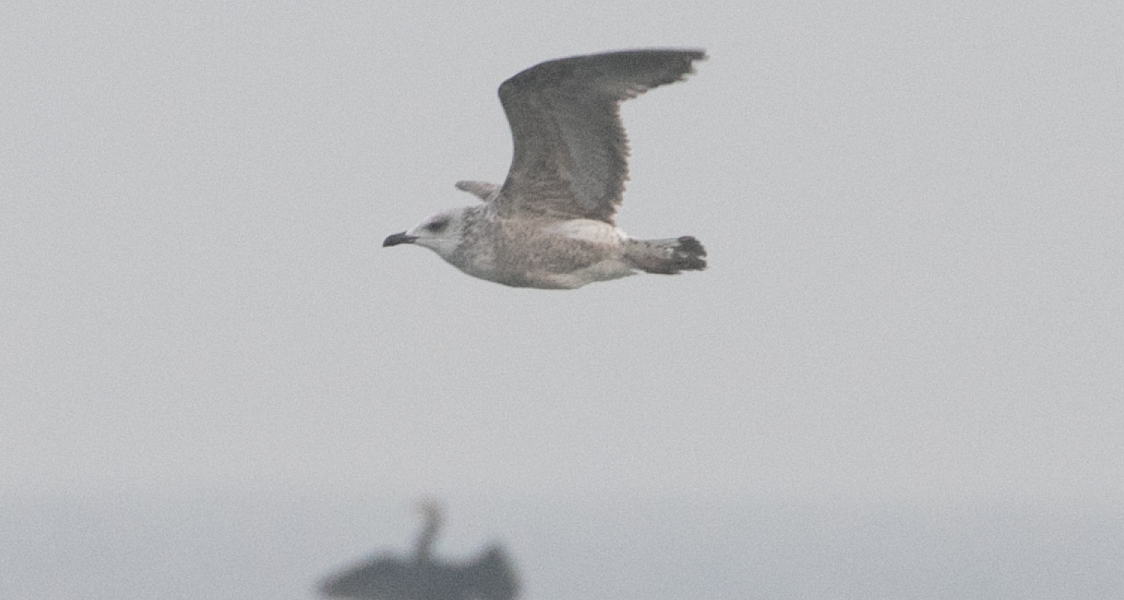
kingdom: Animalia
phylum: Chordata
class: Aves
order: Charadriiformes
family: Laridae
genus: Larus
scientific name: Larus michahellis
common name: Yellow-legged gull
